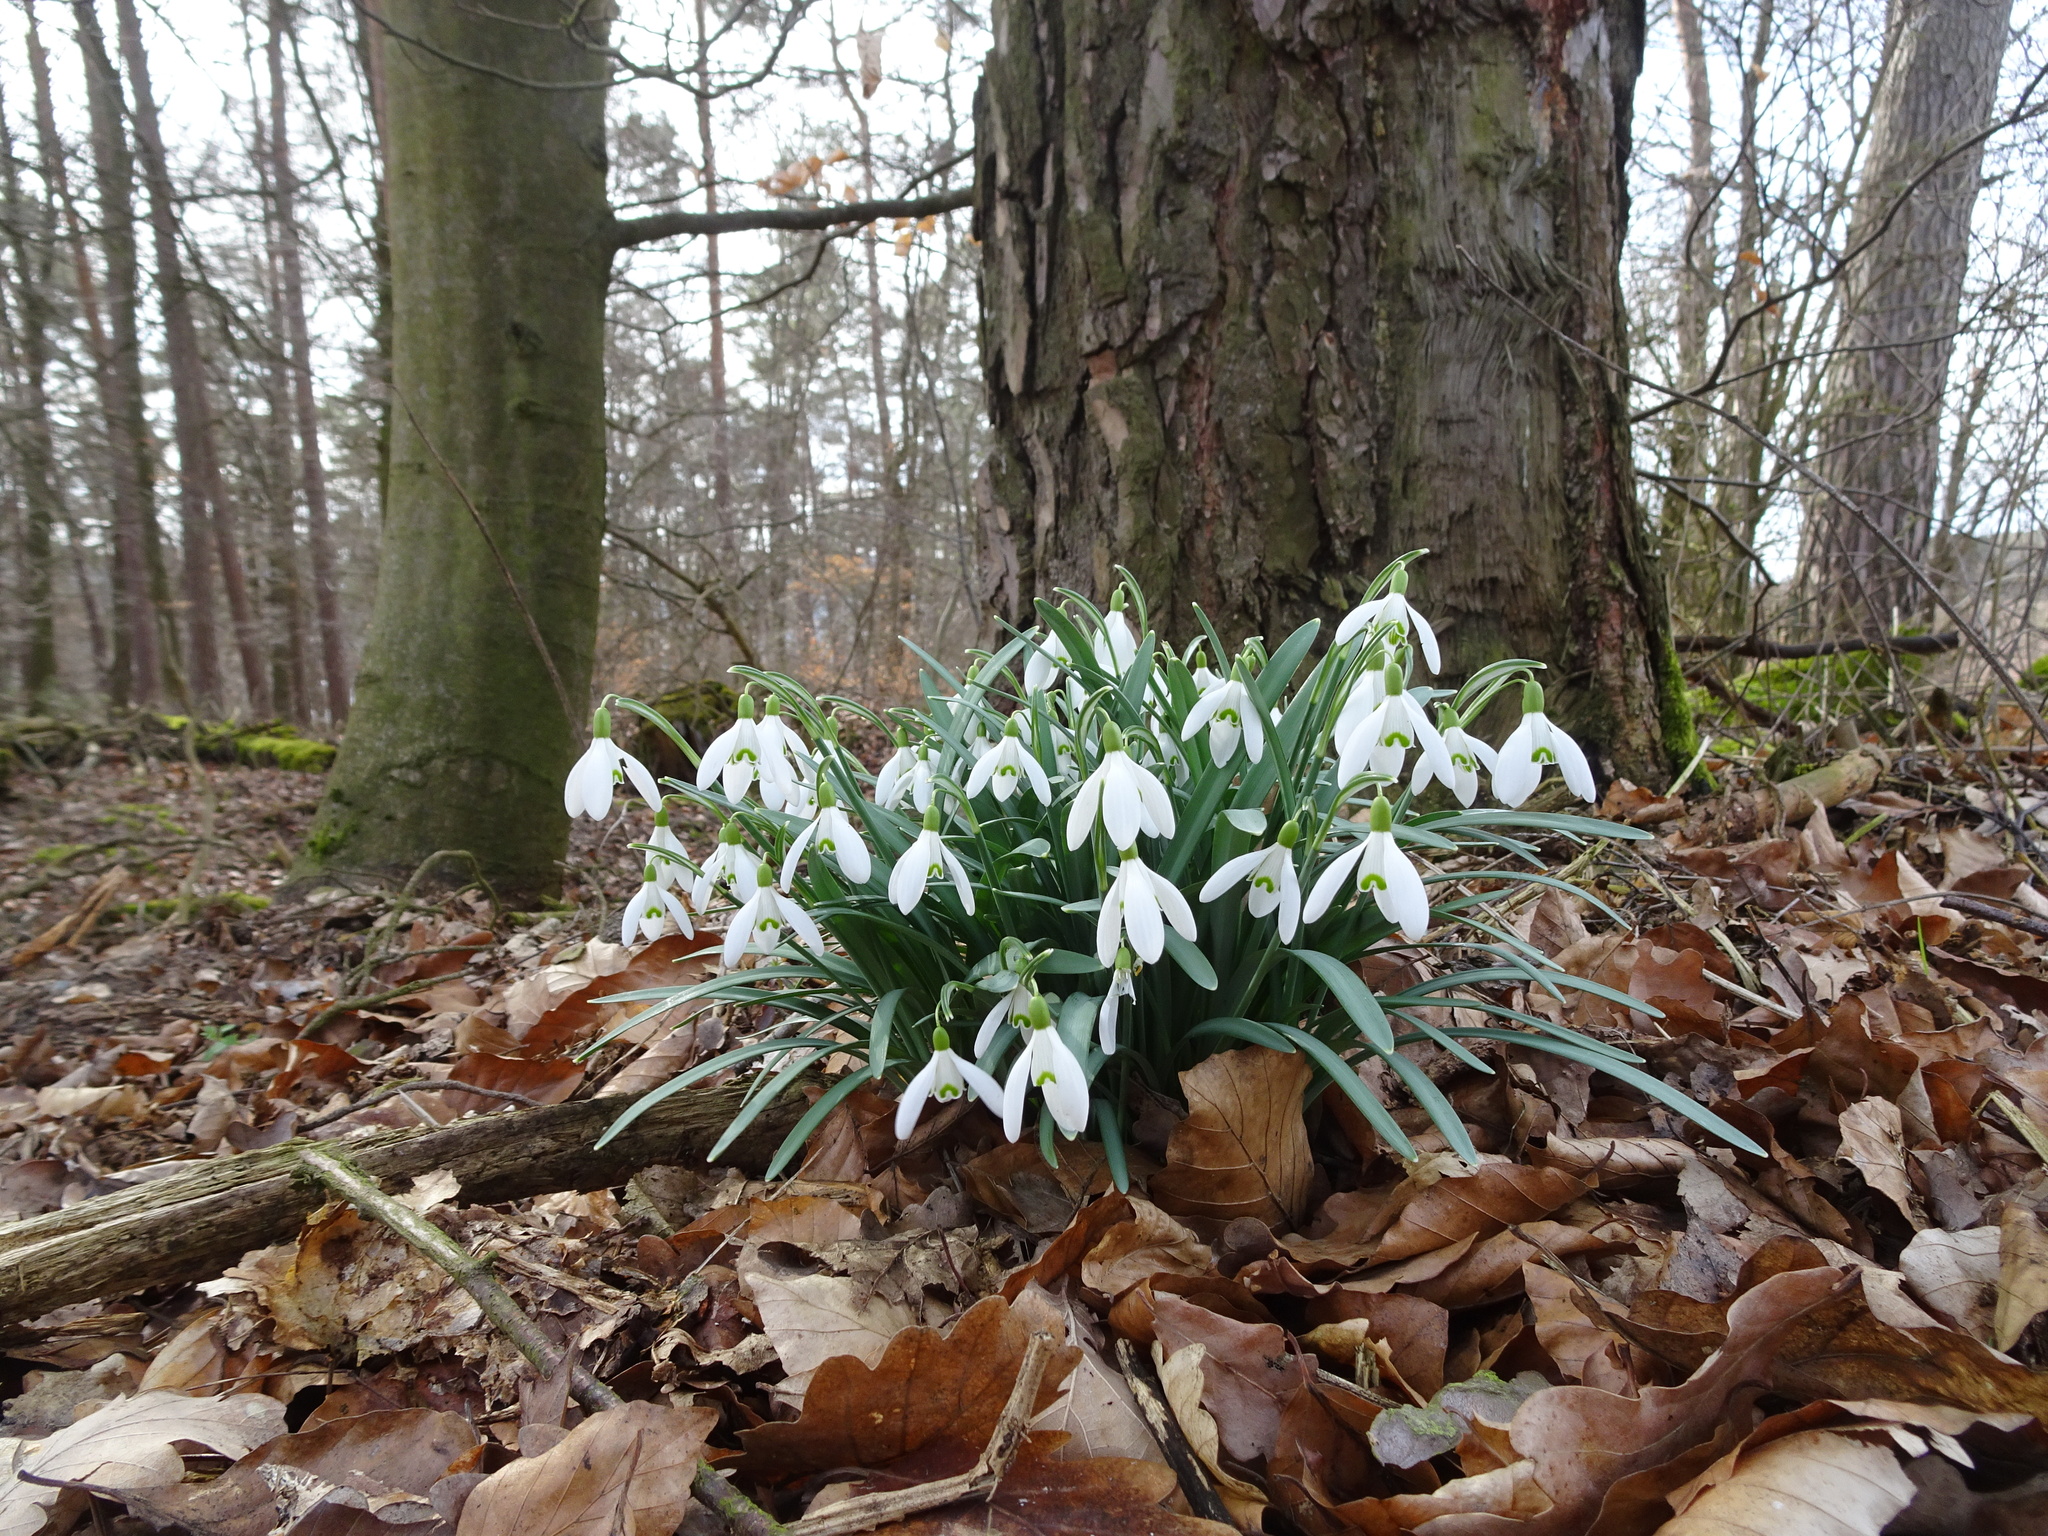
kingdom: Plantae
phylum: Tracheophyta
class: Liliopsida
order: Asparagales
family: Amaryllidaceae
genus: Galanthus
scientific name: Galanthus nivalis
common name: Snowdrop
